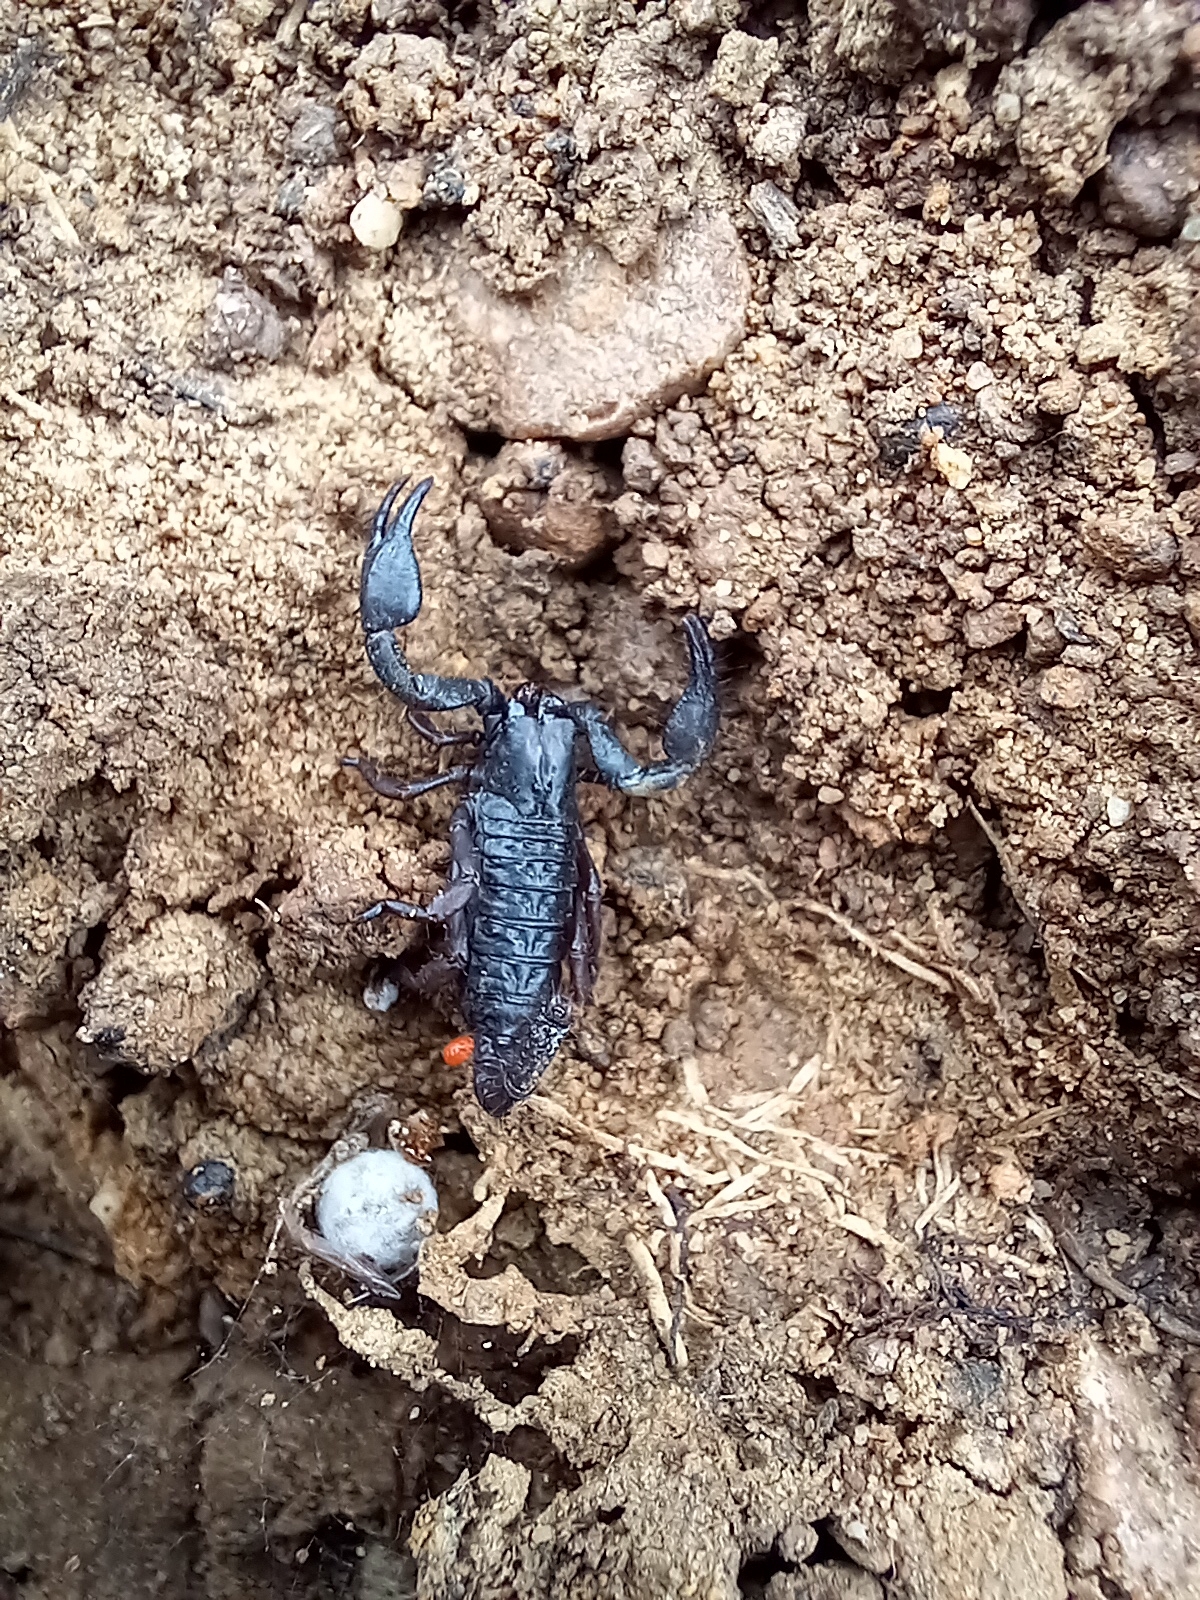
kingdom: Animalia
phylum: Arthropoda
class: Arachnida
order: Scorpiones
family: Scorpionidae
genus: Opistophthalmus
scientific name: Opistophthalmus latimanus
